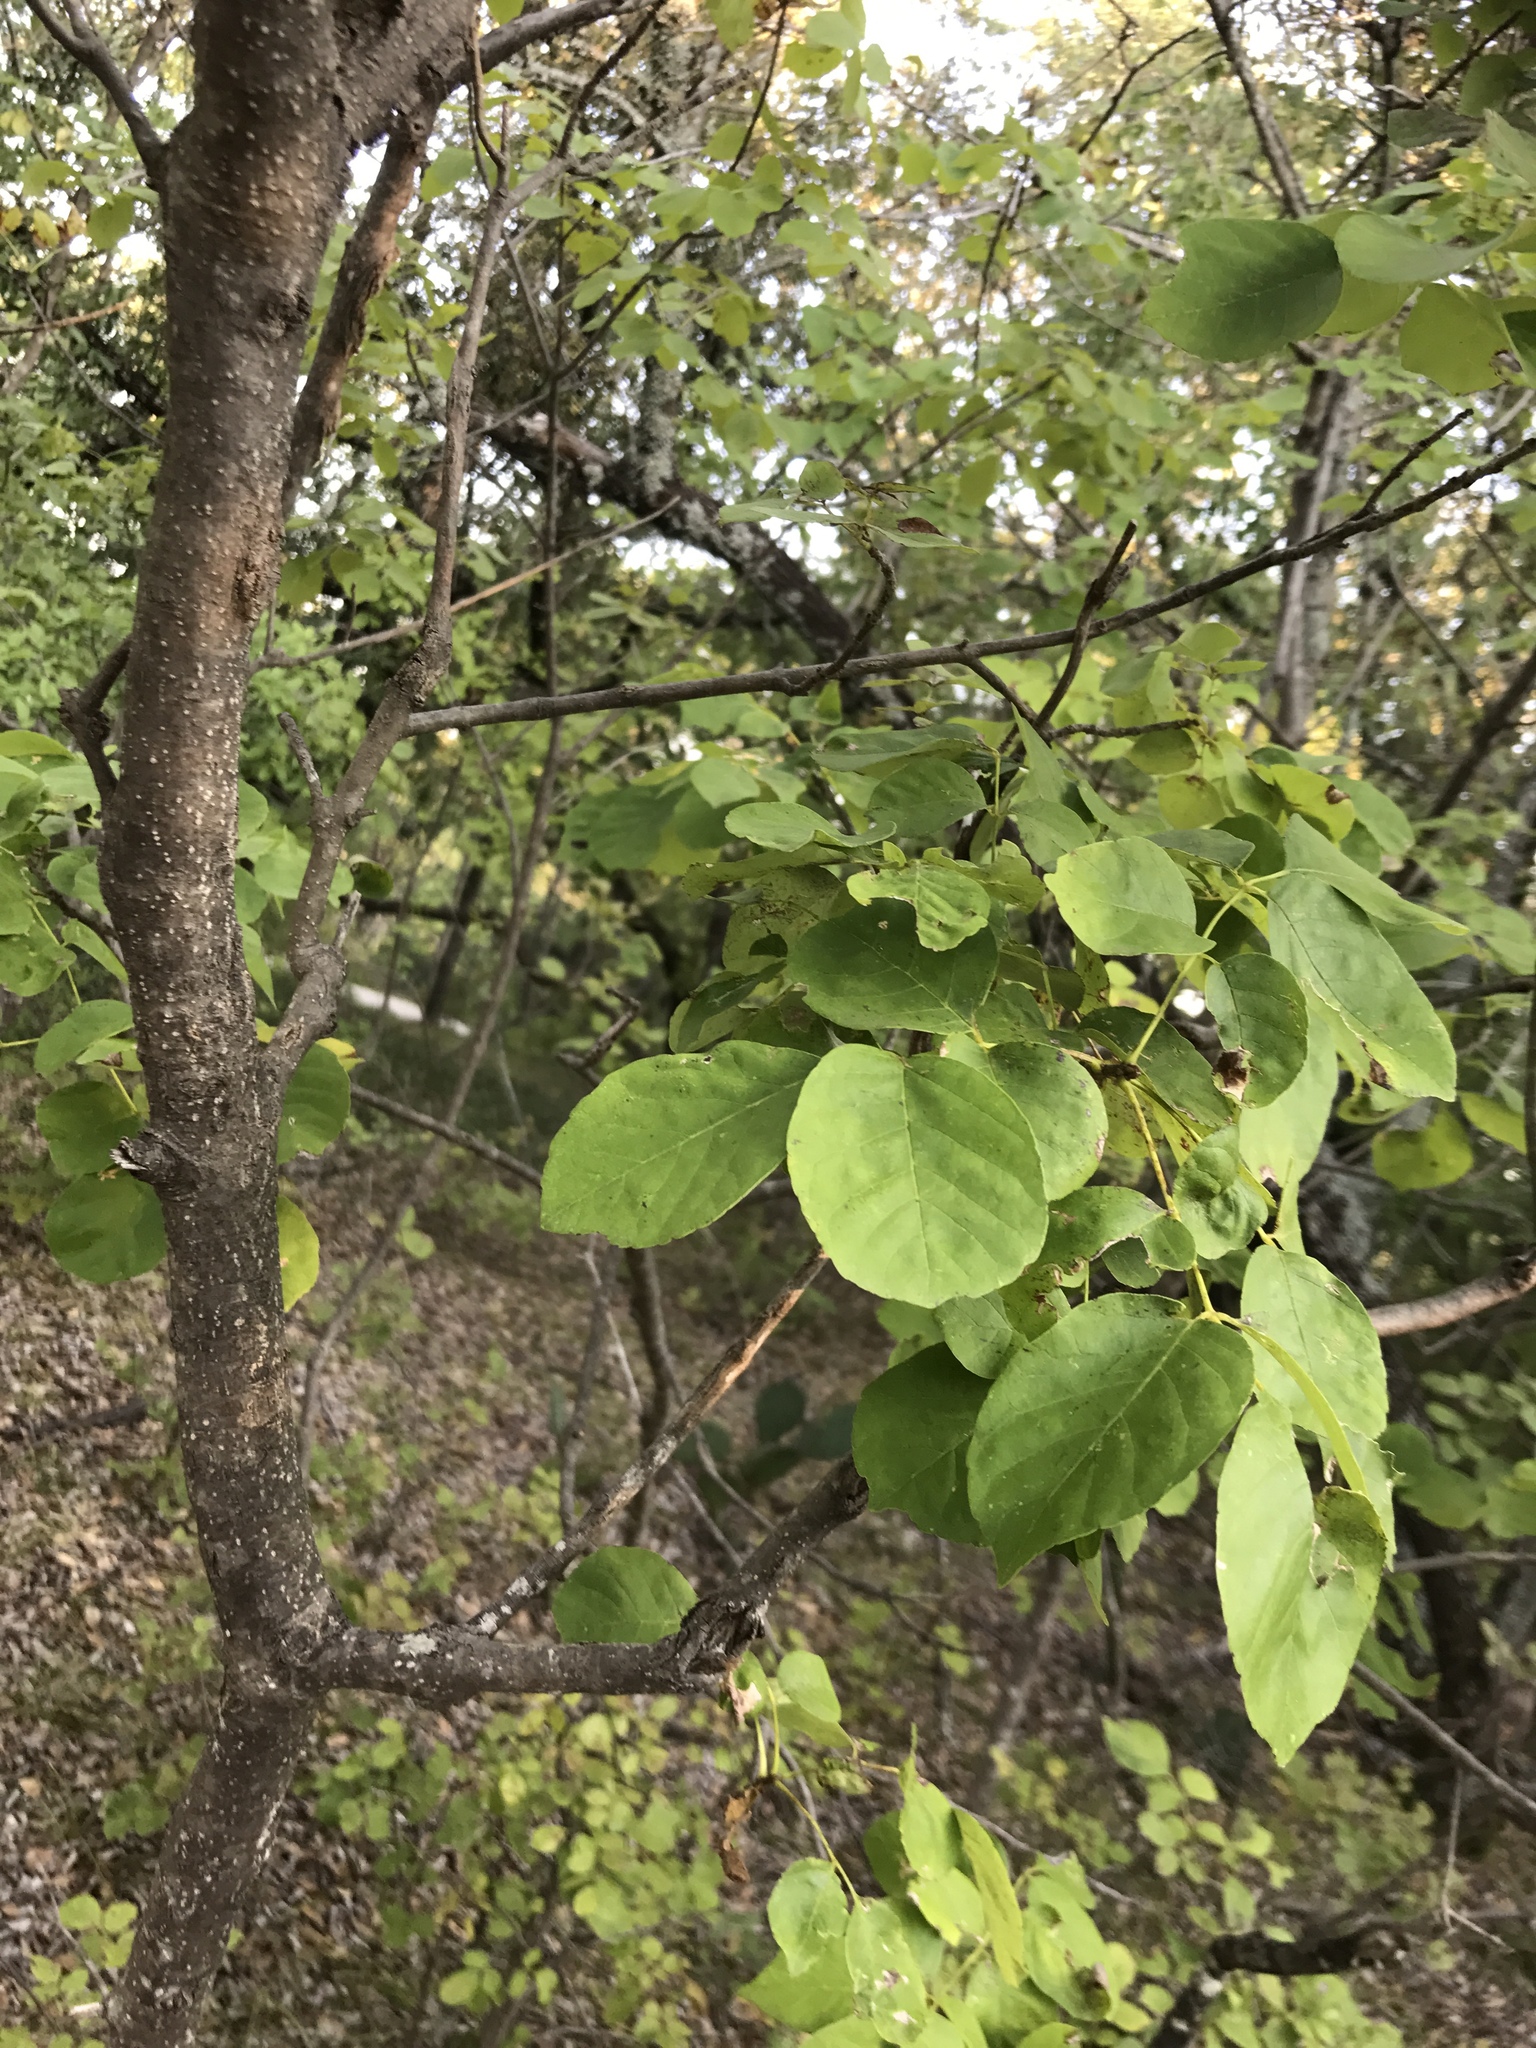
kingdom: Plantae
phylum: Tracheophyta
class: Magnoliopsida
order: Fabales
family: Fabaceae
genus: Cercis
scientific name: Cercis canadensis
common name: Eastern redbud
